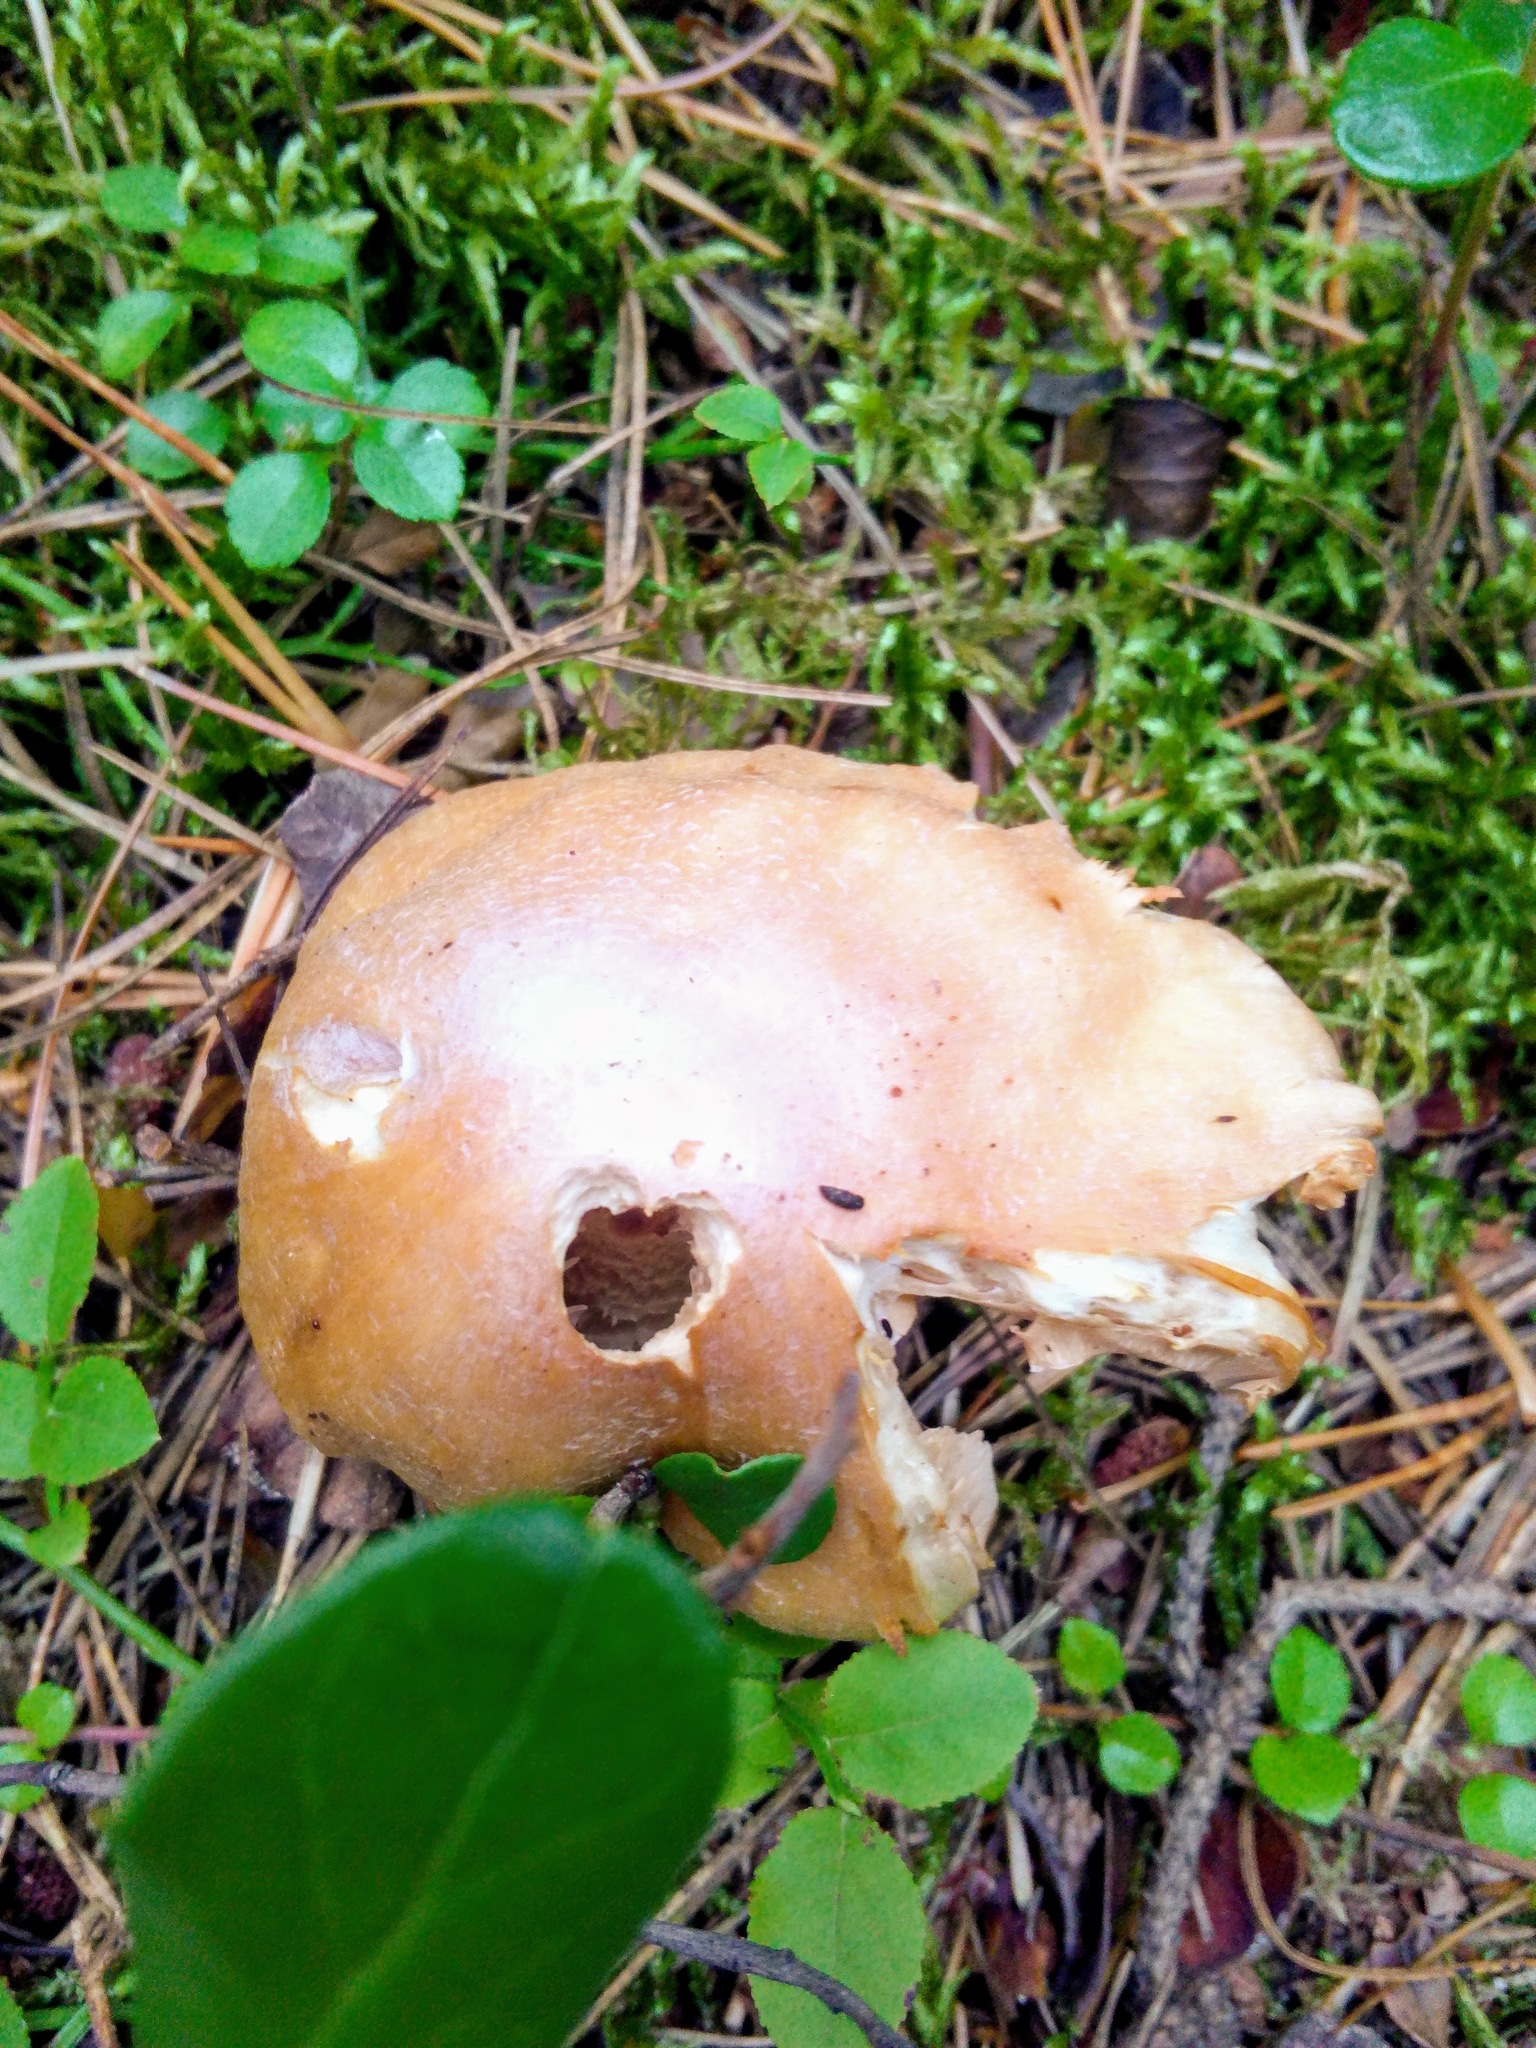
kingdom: Fungi
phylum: Basidiomycota
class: Agaricomycetes
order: Agaricales
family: Cortinariaceae
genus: Cortinarius
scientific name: Cortinarius caperatus
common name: The gypsy
